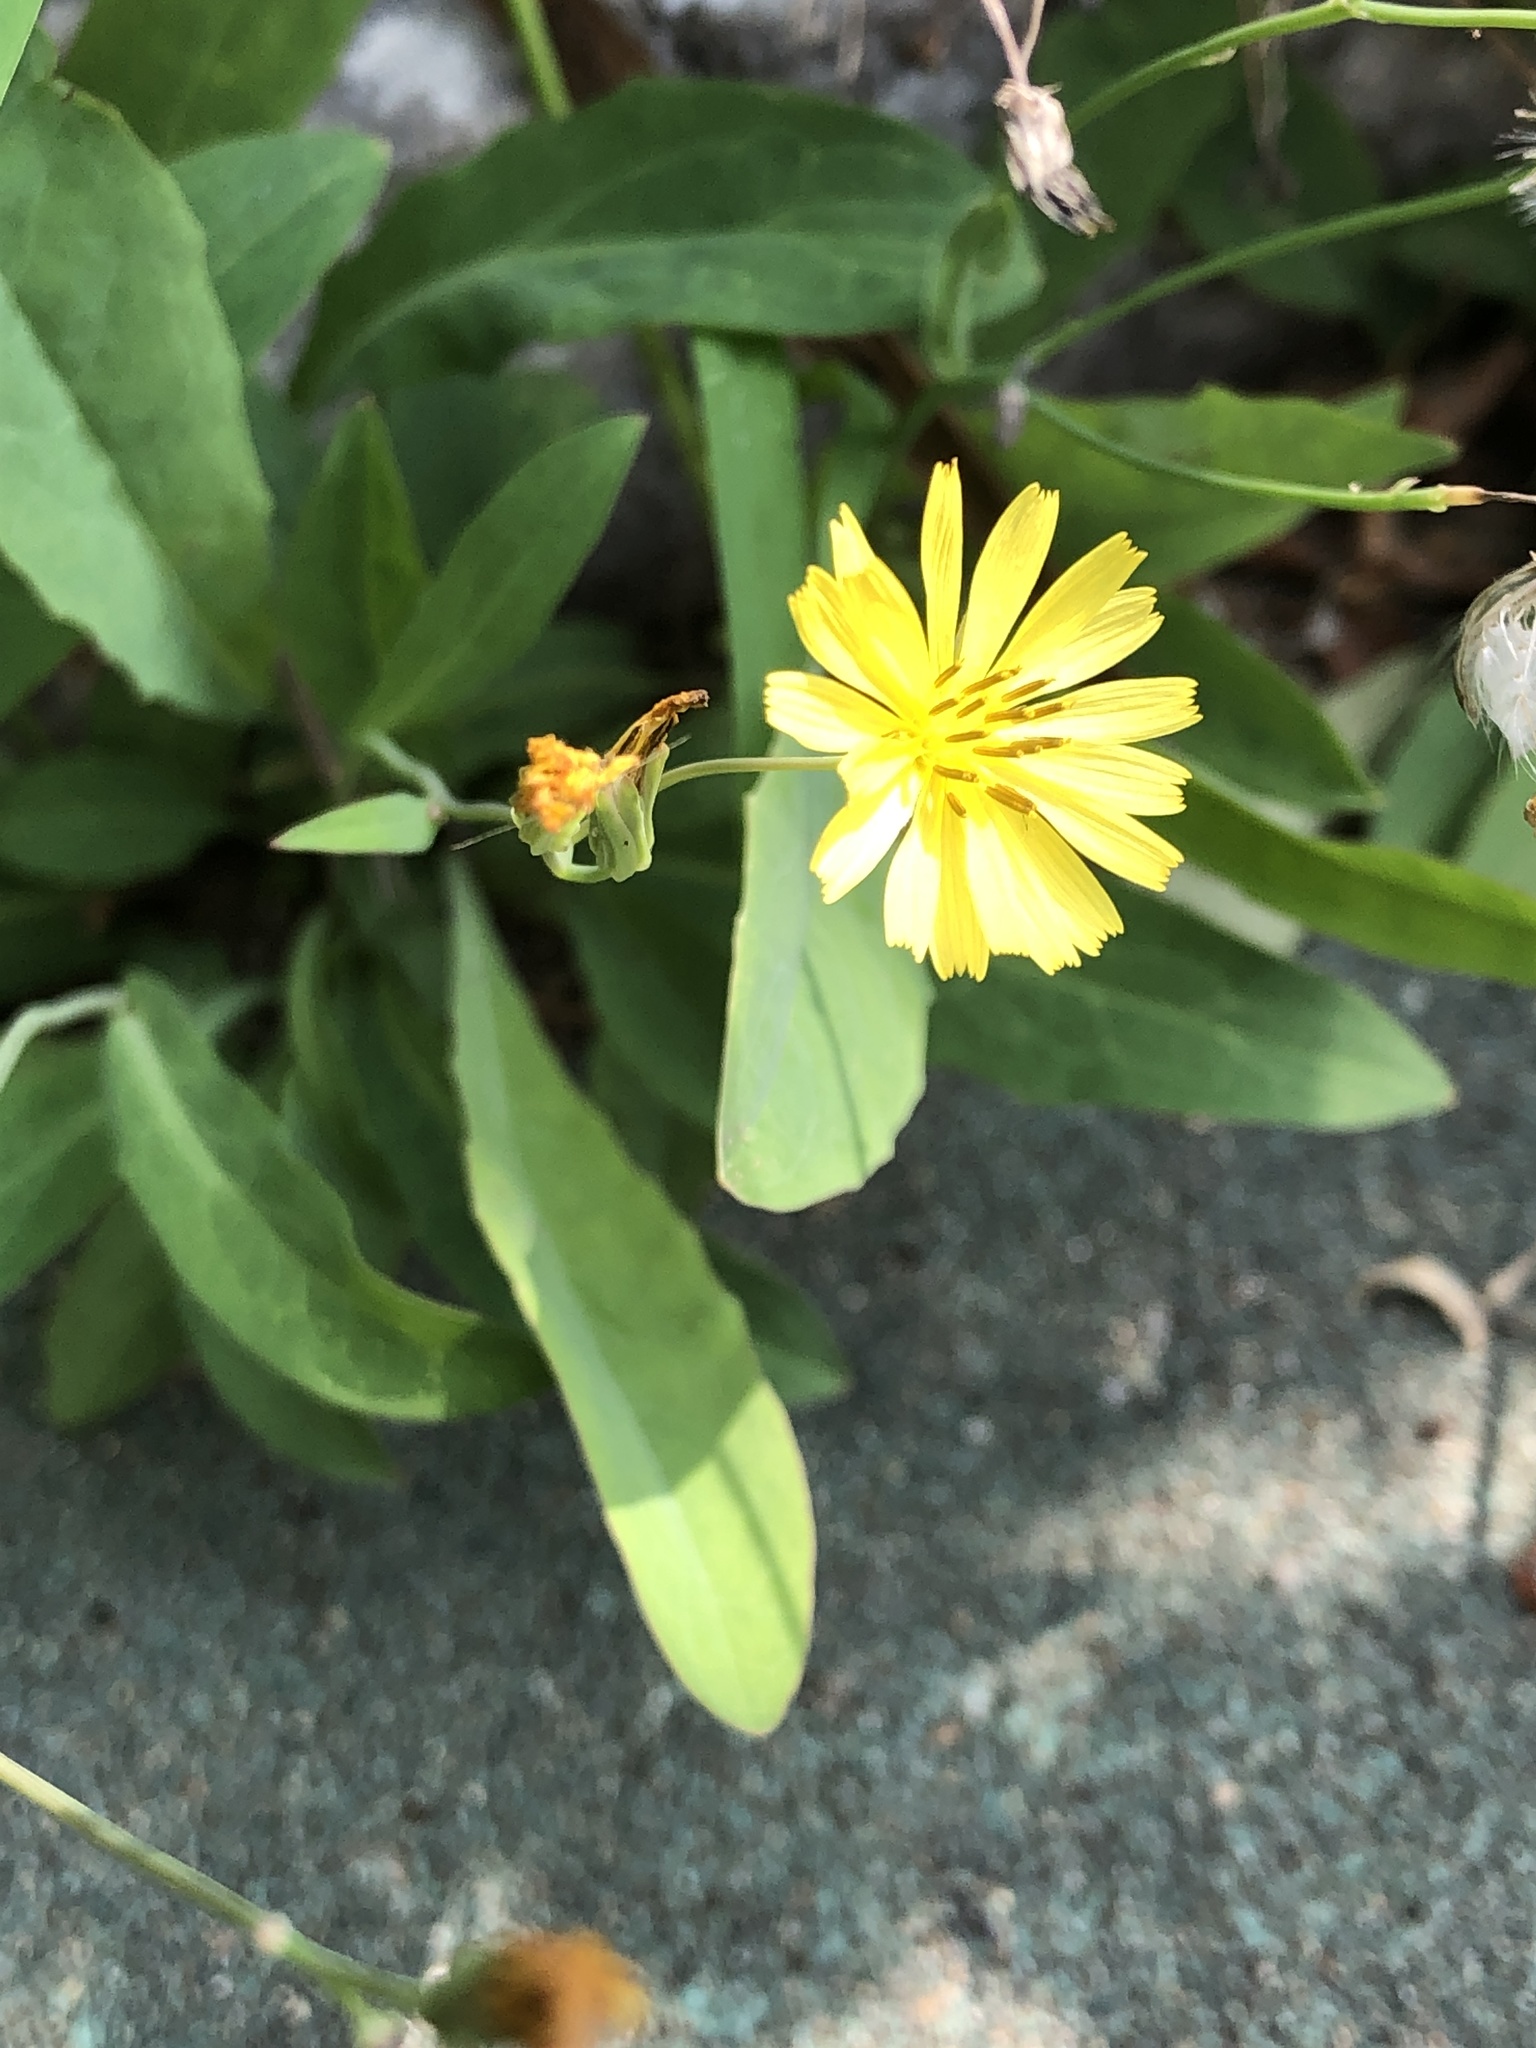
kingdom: Plantae
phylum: Tracheophyta
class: Magnoliopsida
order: Asterales
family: Asteraceae
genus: Ixeris
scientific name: Ixeris chinensis
